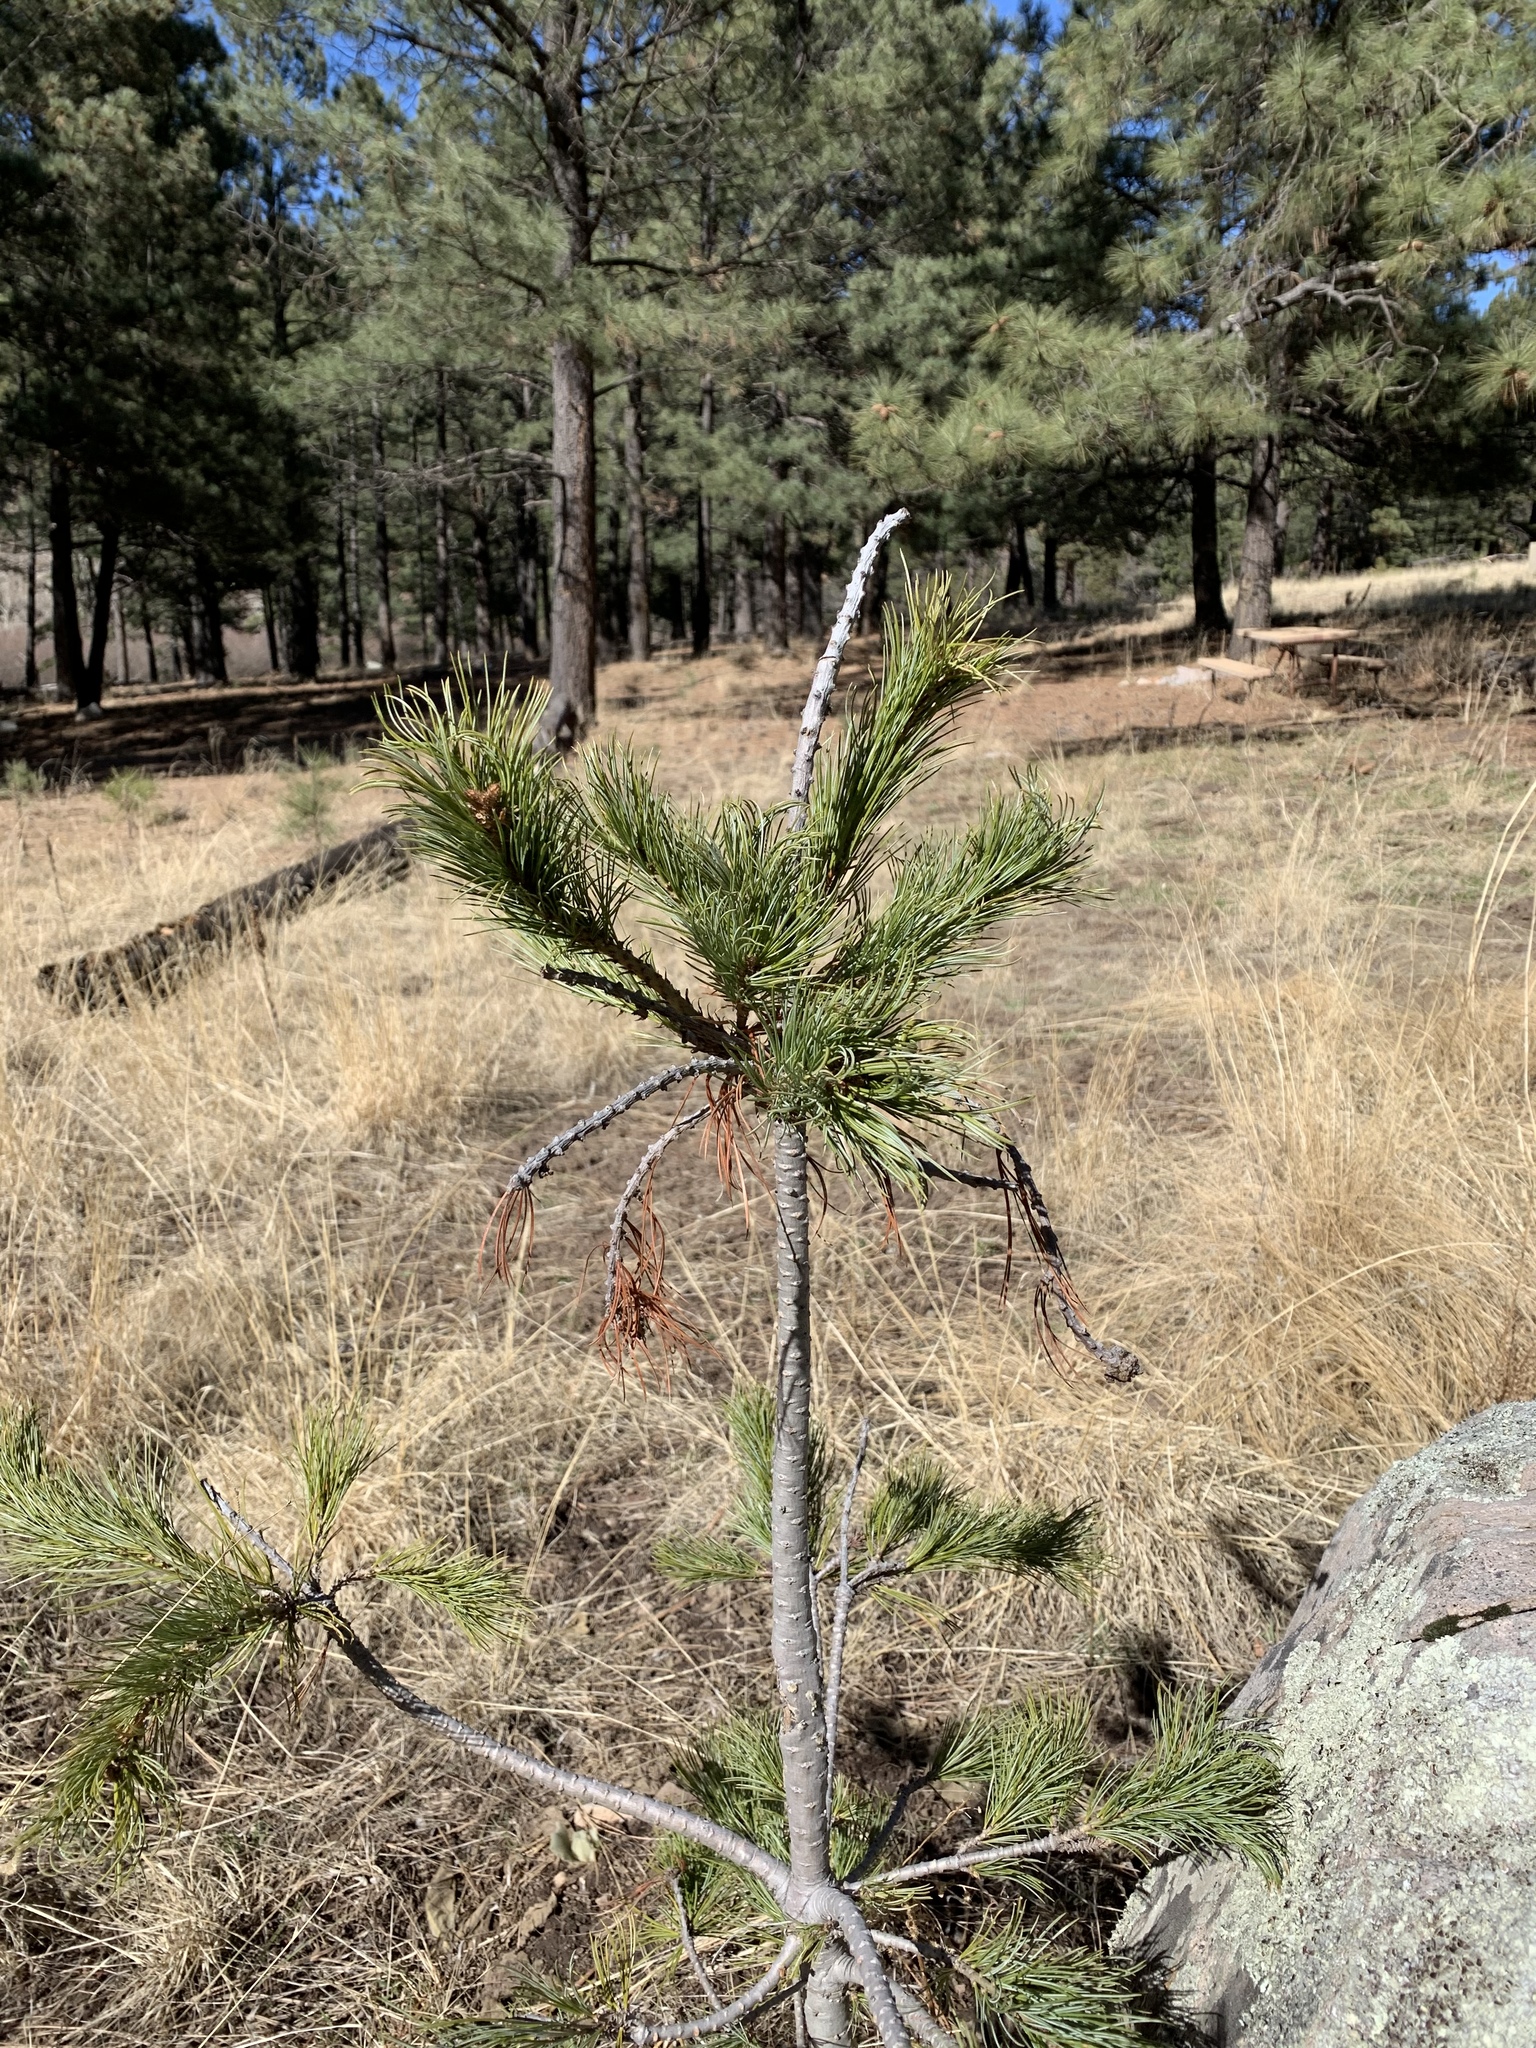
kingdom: Plantae
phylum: Tracheophyta
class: Pinopsida
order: Pinales
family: Pinaceae
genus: Pinus
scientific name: Pinus strobiformis
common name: Southwestern white pine
